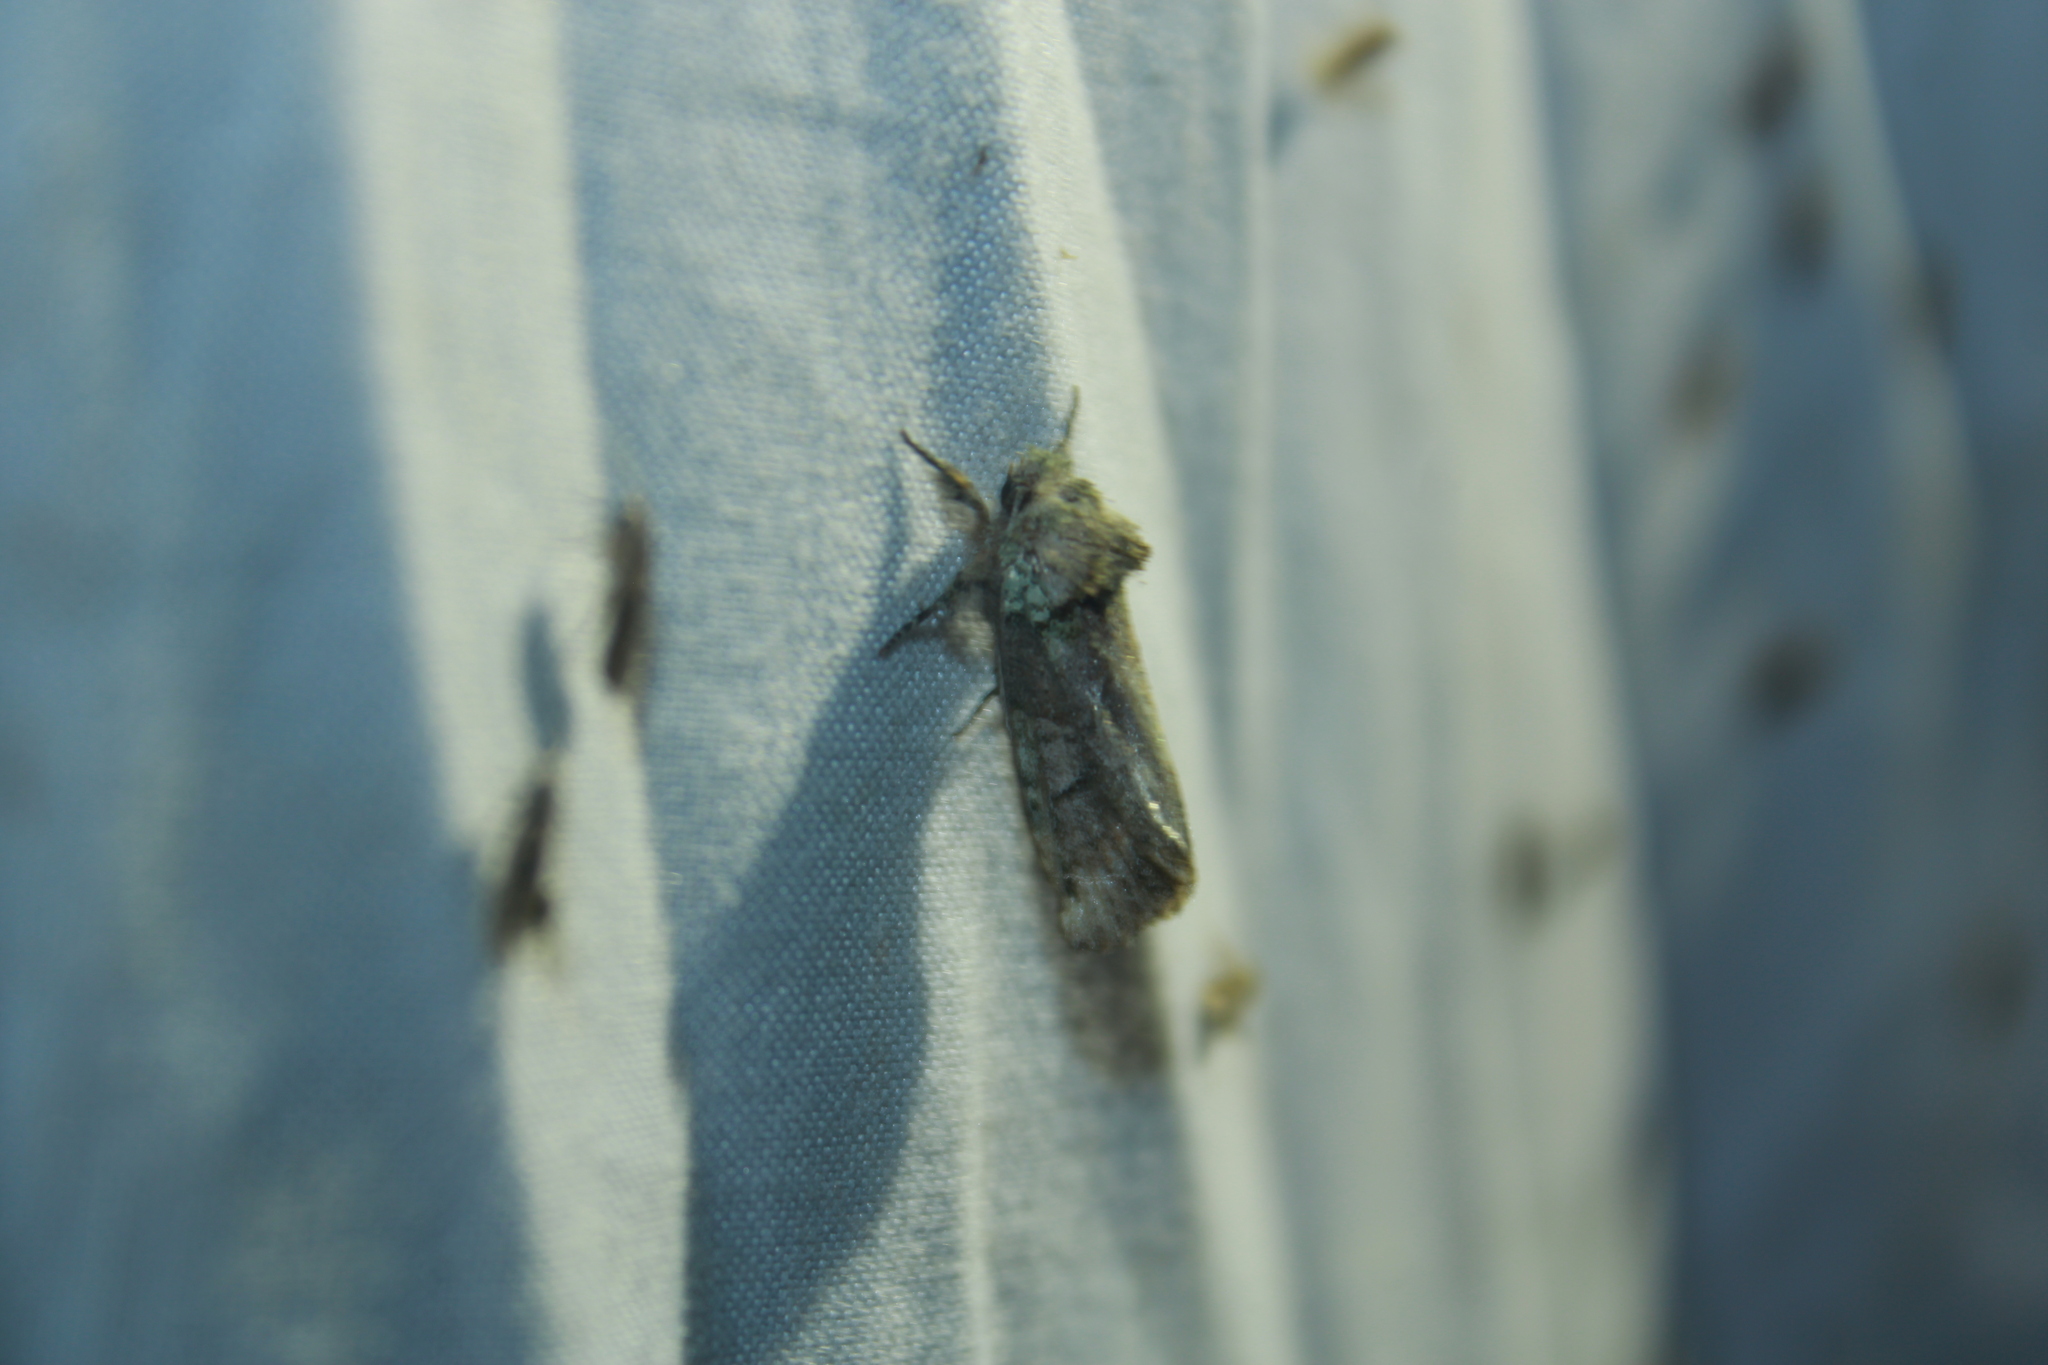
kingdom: Animalia
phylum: Arthropoda
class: Insecta
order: Lepidoptera
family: Notodontidae
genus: Schizura
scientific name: Schizura
